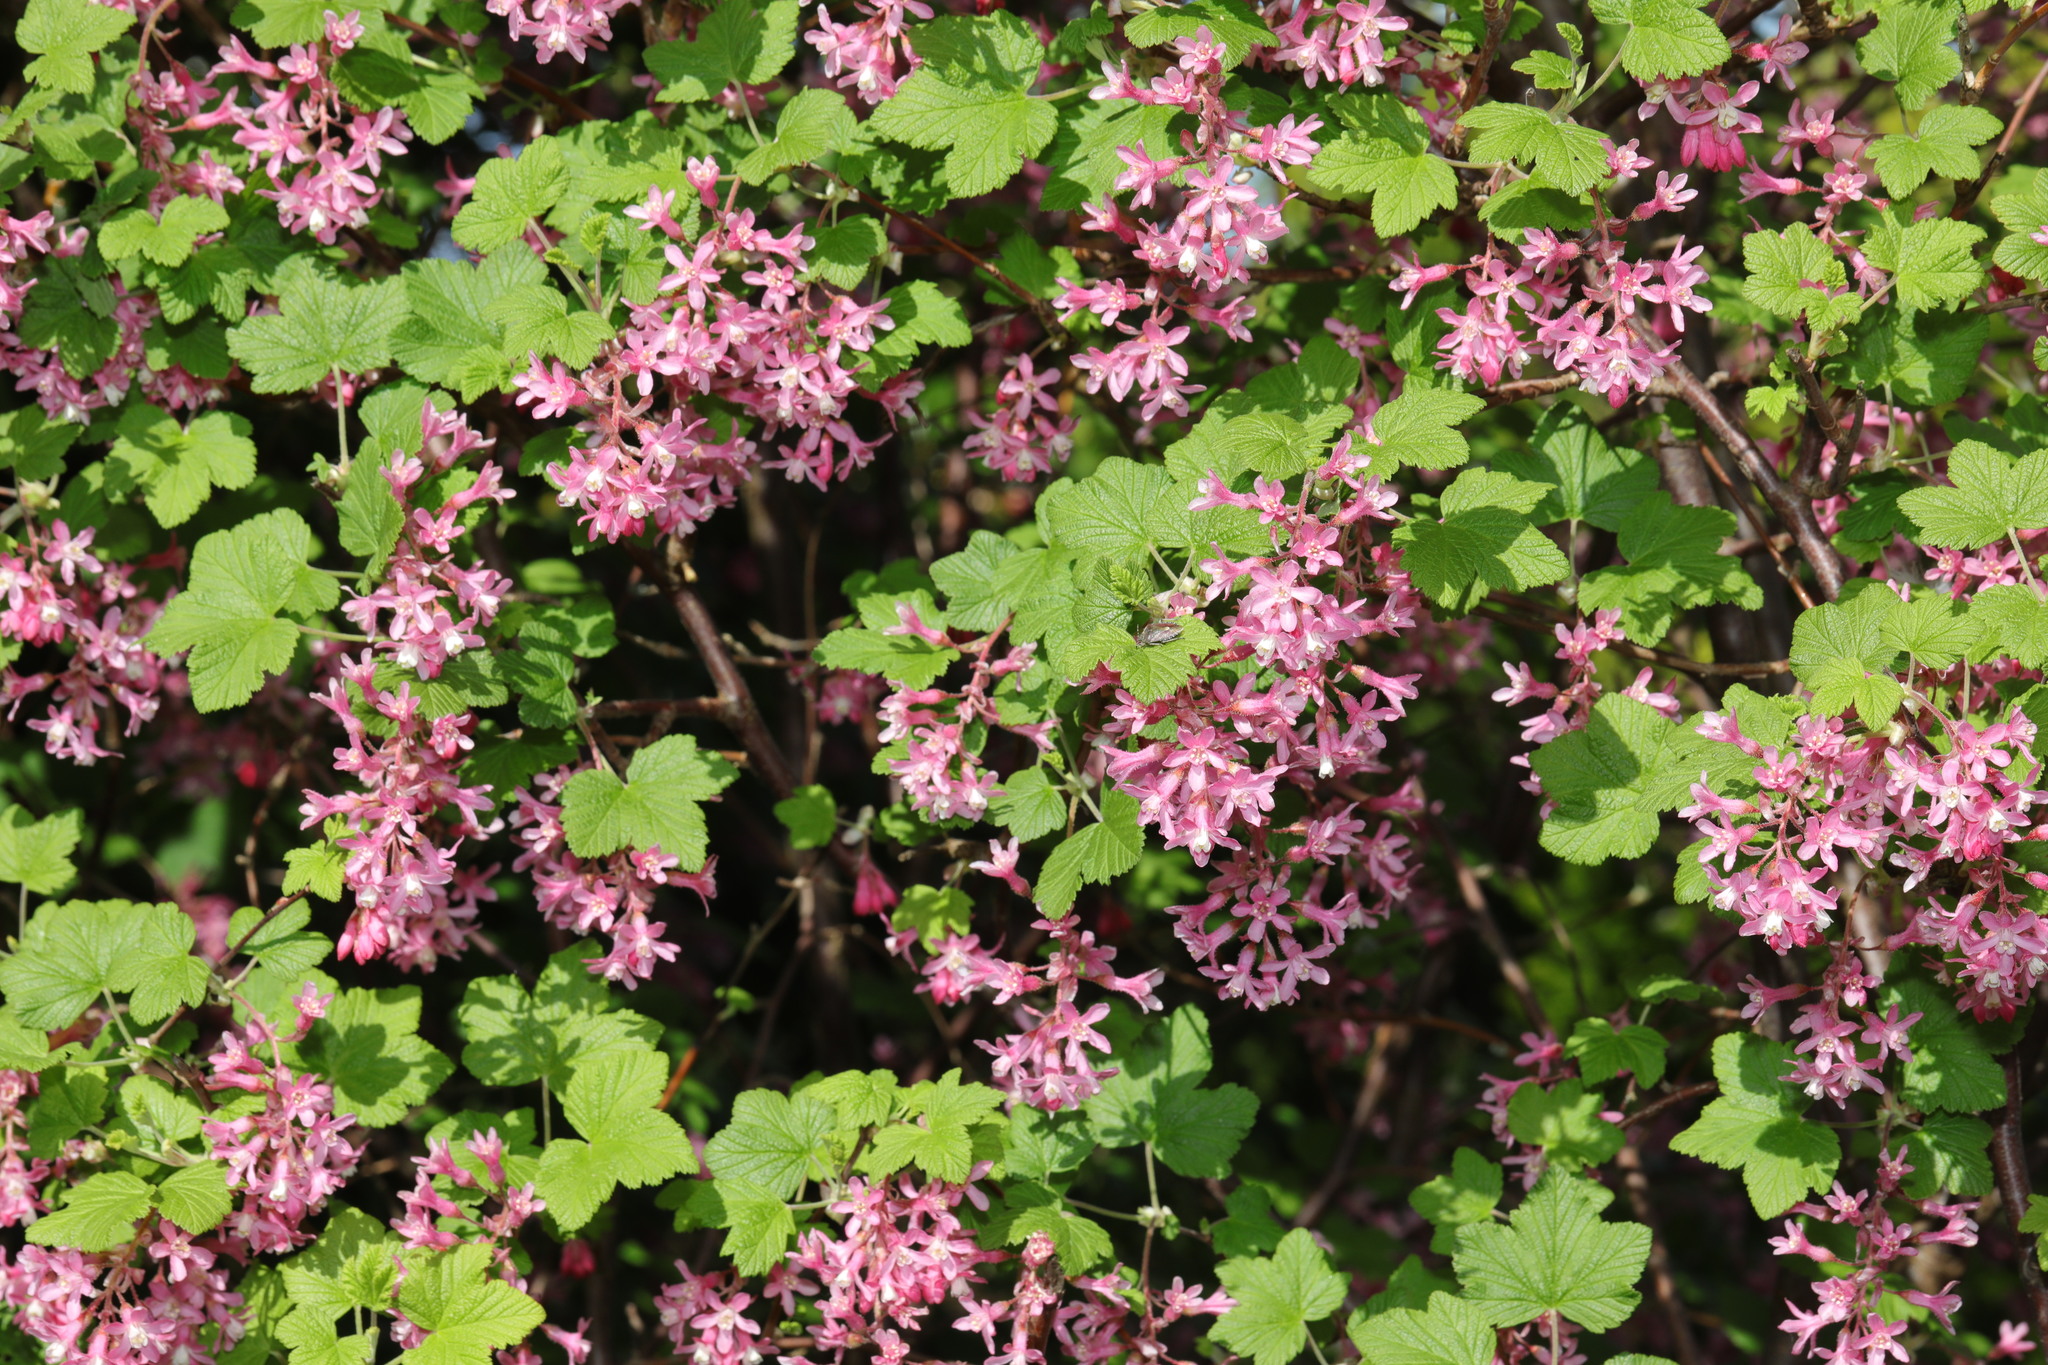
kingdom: Plantae
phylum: Tracheophyta
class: Magnoliopsida
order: Saxifragales
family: Grossulariaceae
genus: Ribes
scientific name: Ribes sanguineum
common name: Flowering currant
